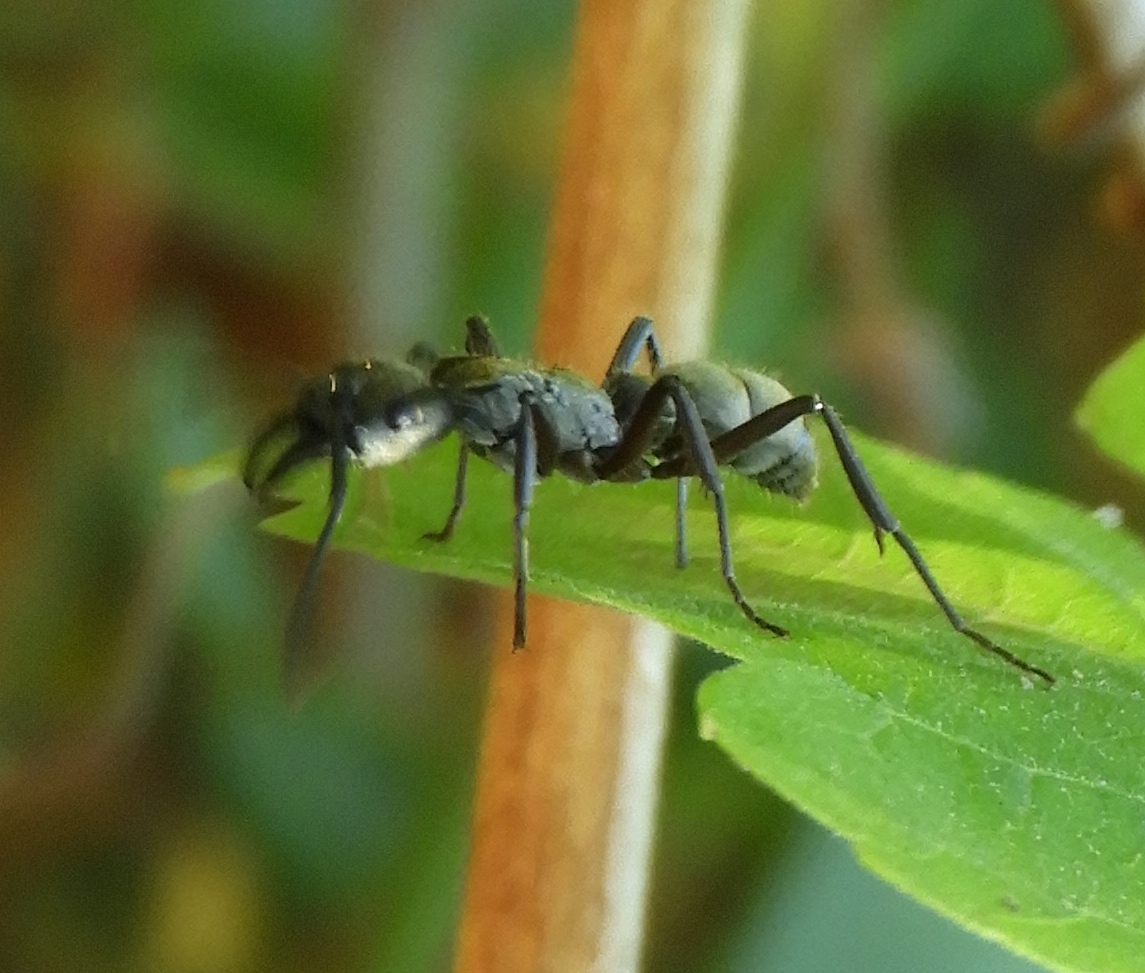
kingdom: Animalia
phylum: Arthropoda
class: Insecta
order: Hymenoptera
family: Formicidae
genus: Pachycondyla
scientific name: Pachycondyla villosa
